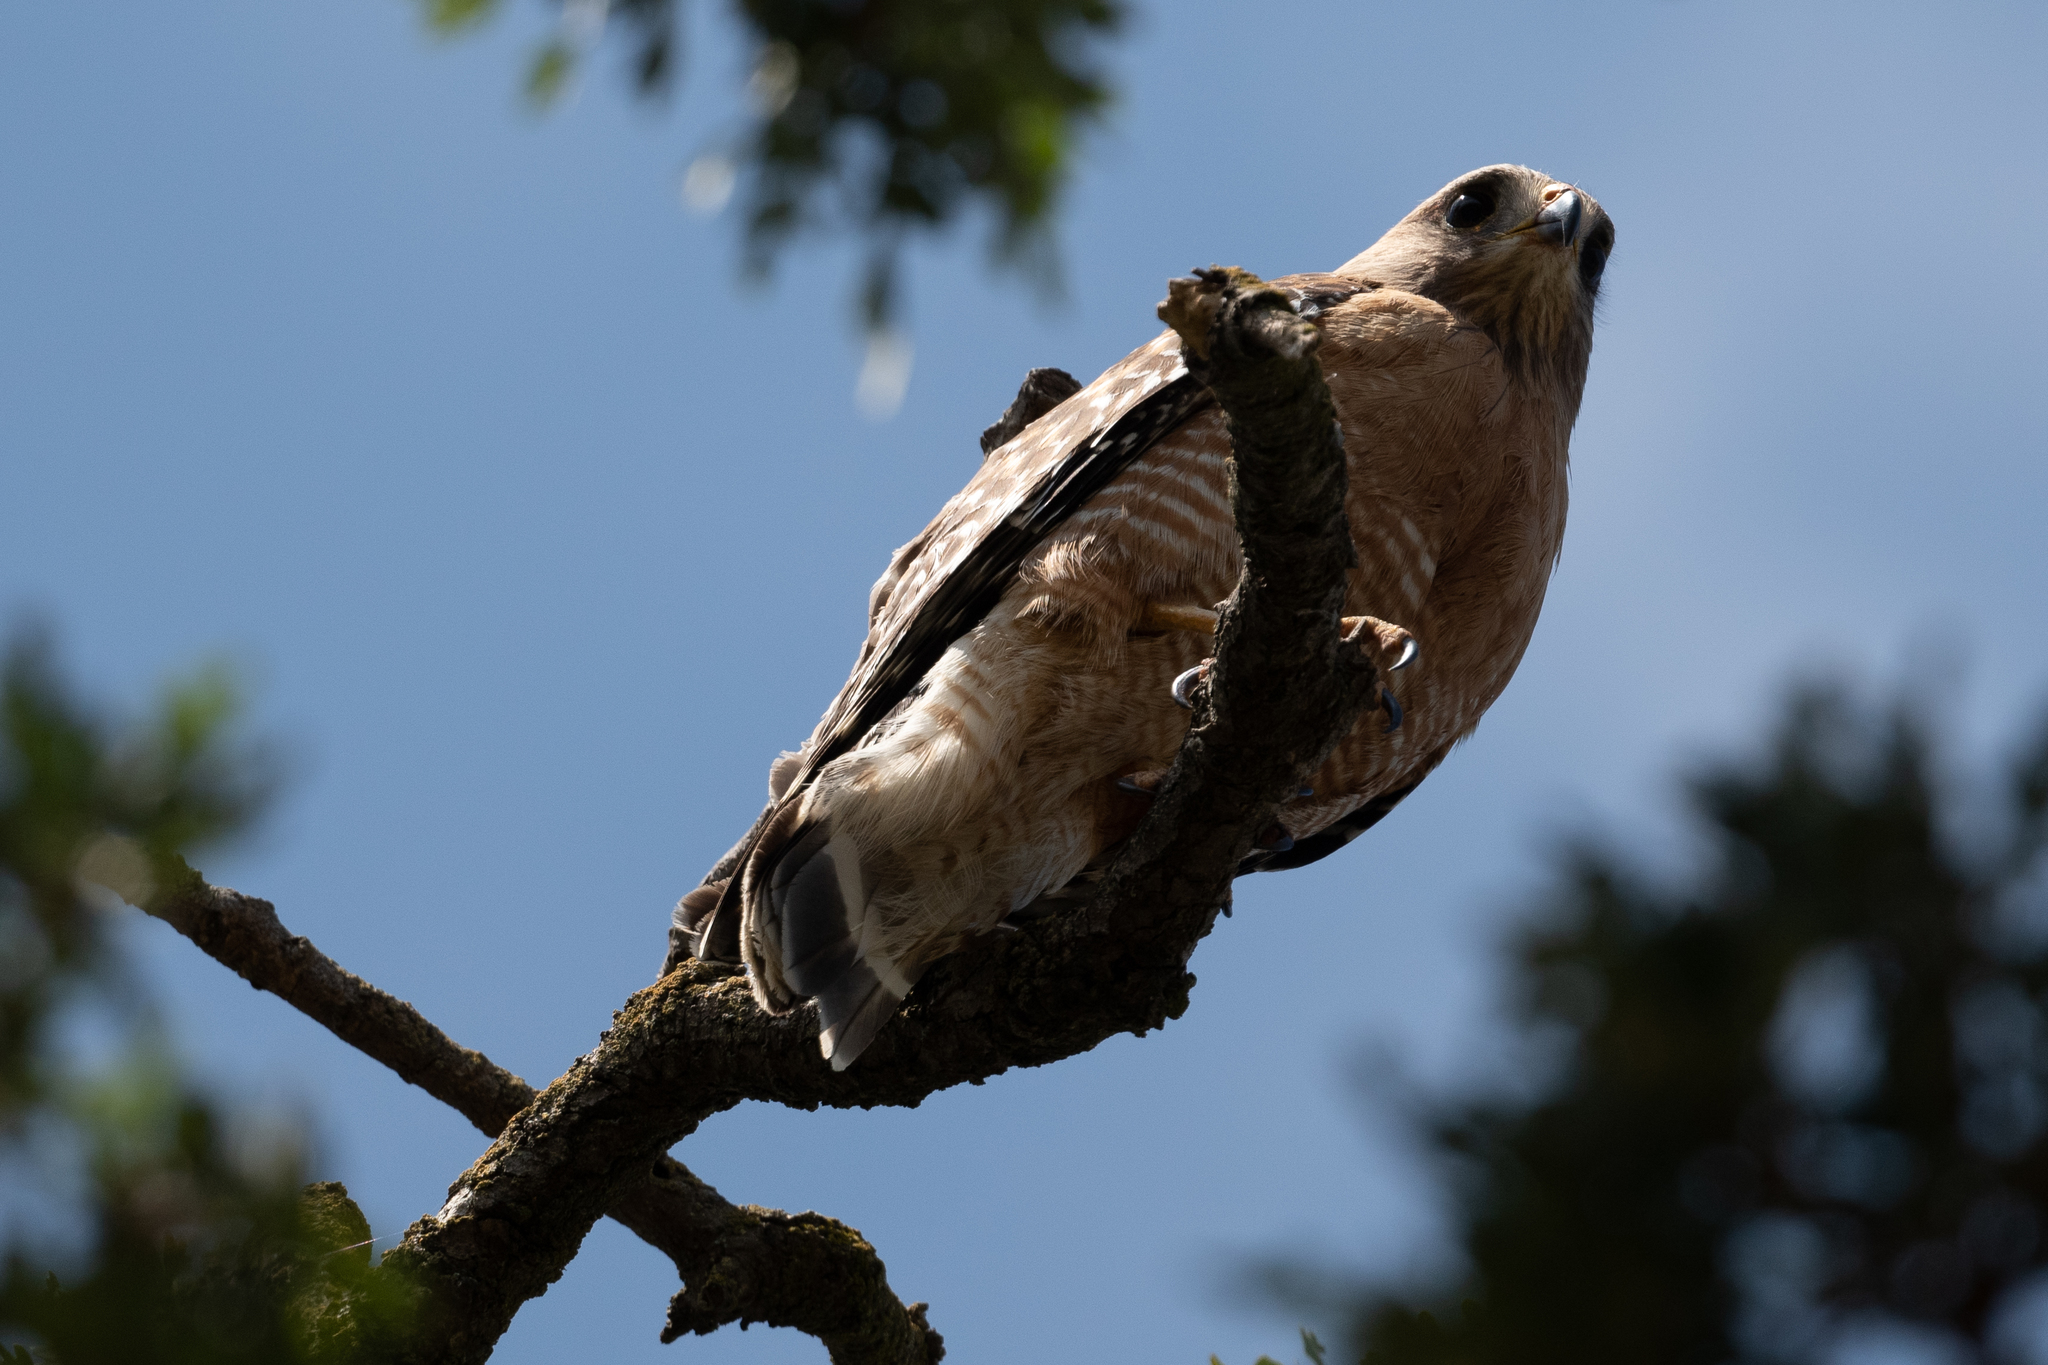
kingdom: Animalia
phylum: Chordata
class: Aves
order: Accipitriformes
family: Accipitridae
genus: Buteo
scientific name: Buteo lineatus
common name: Red-shouldered hawk
